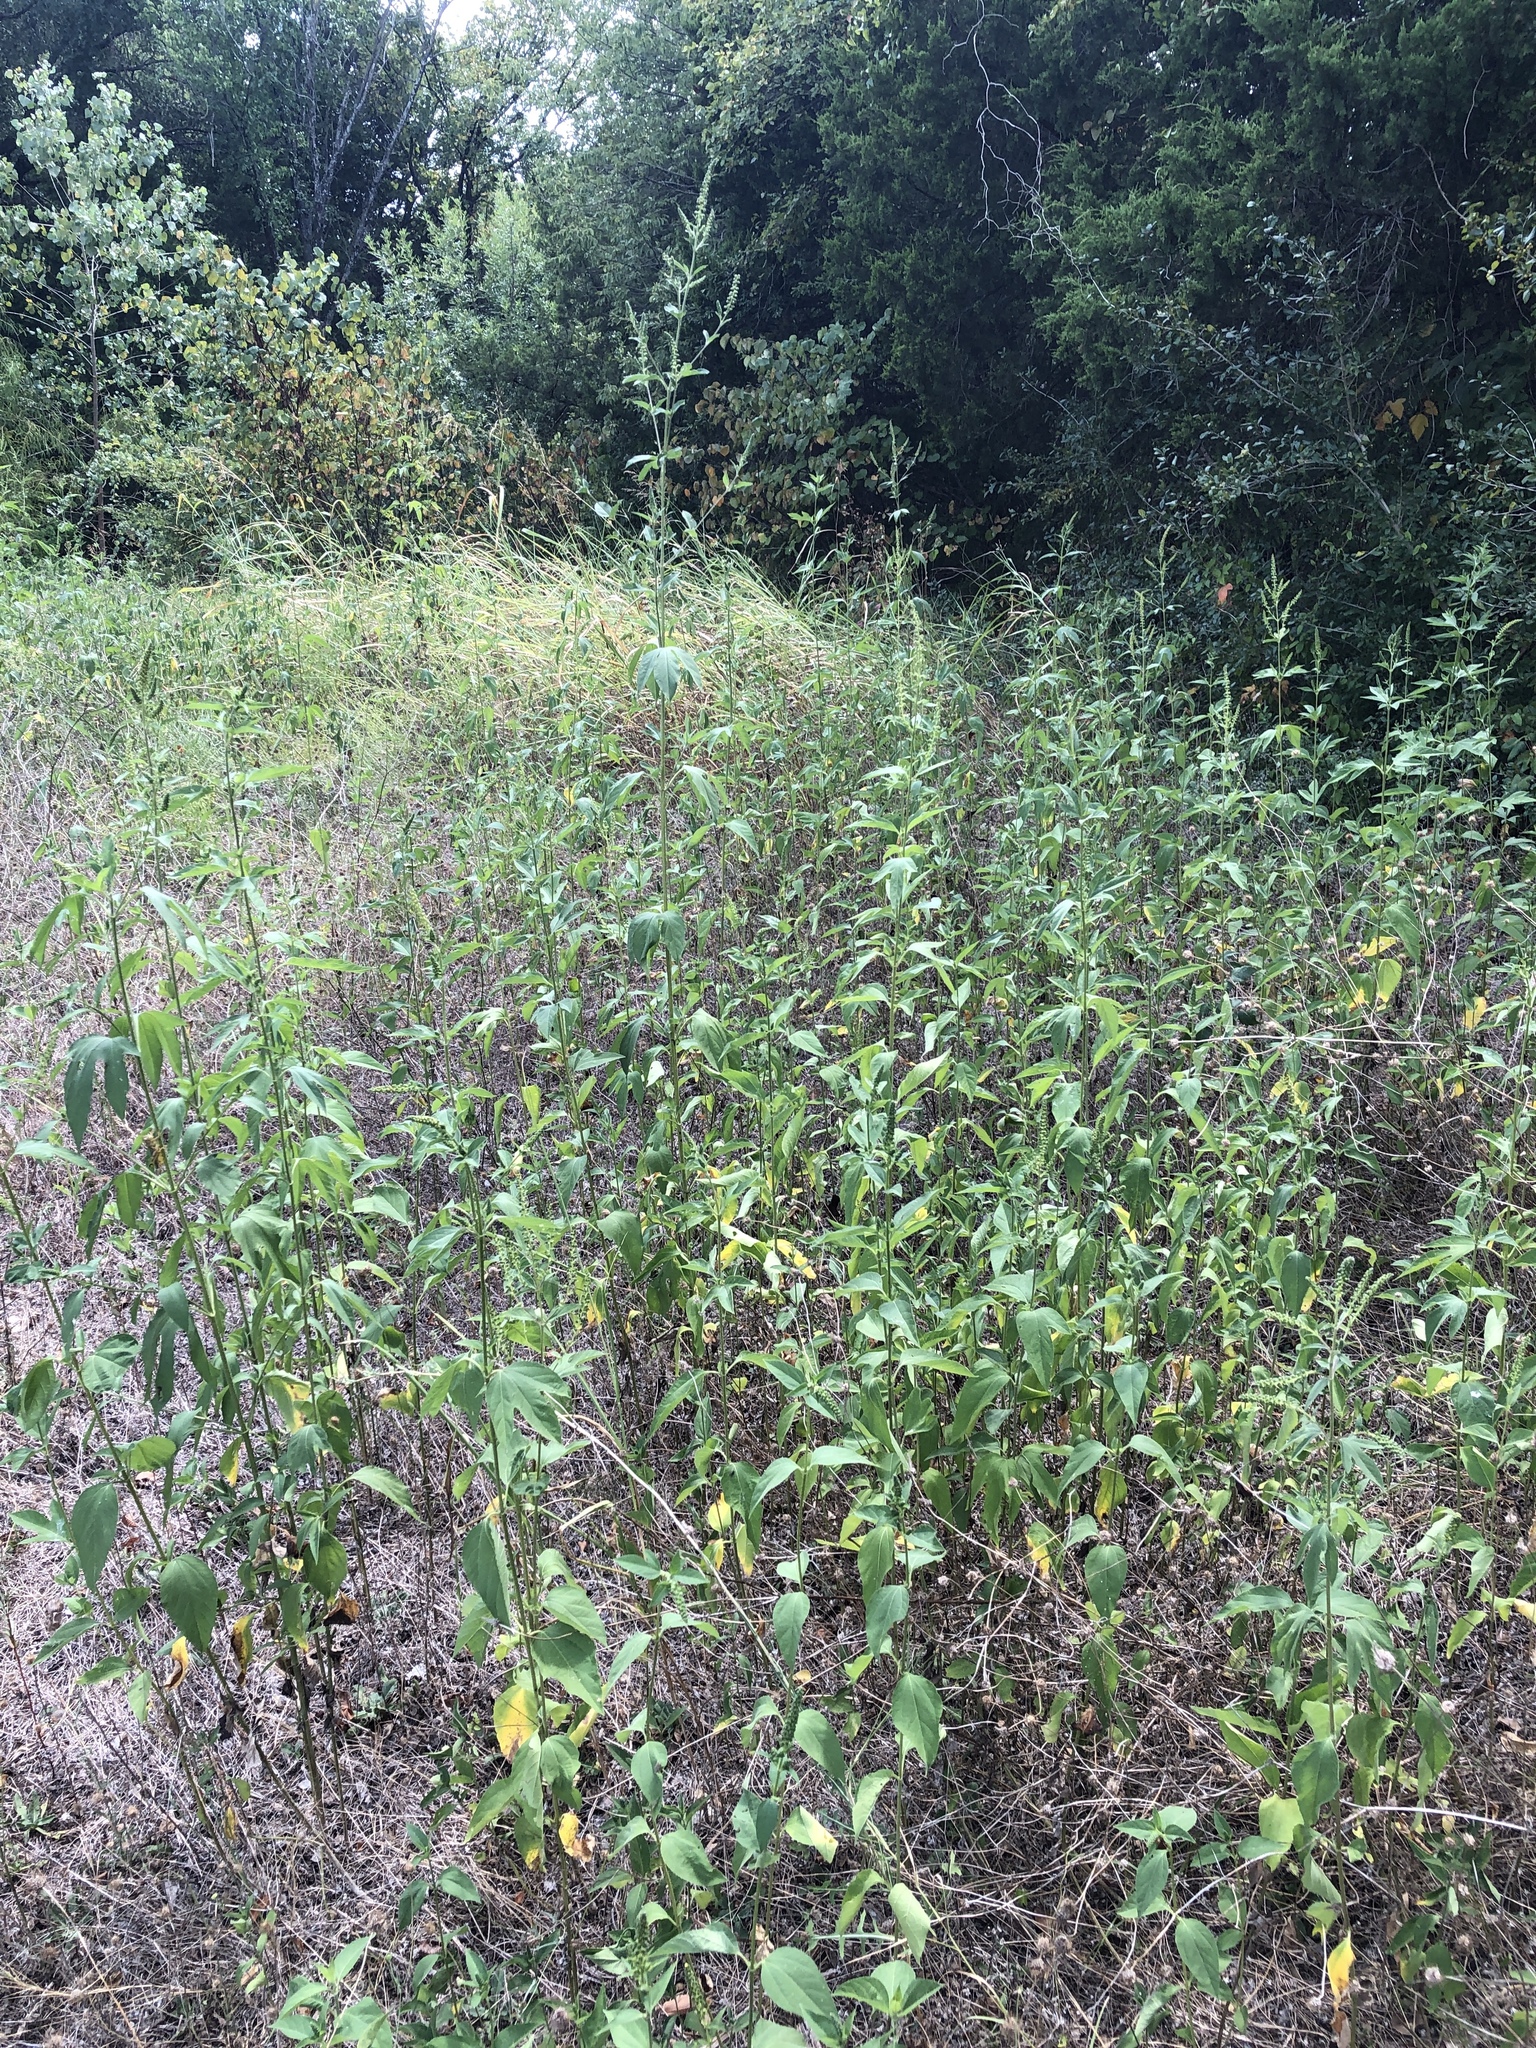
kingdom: Plantae
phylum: Tracheophyta
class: Magnoliopsida
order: Asterales
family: Asteraceae
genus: Ambrosia
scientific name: Ambrosia trifida
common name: Giant ragweed
